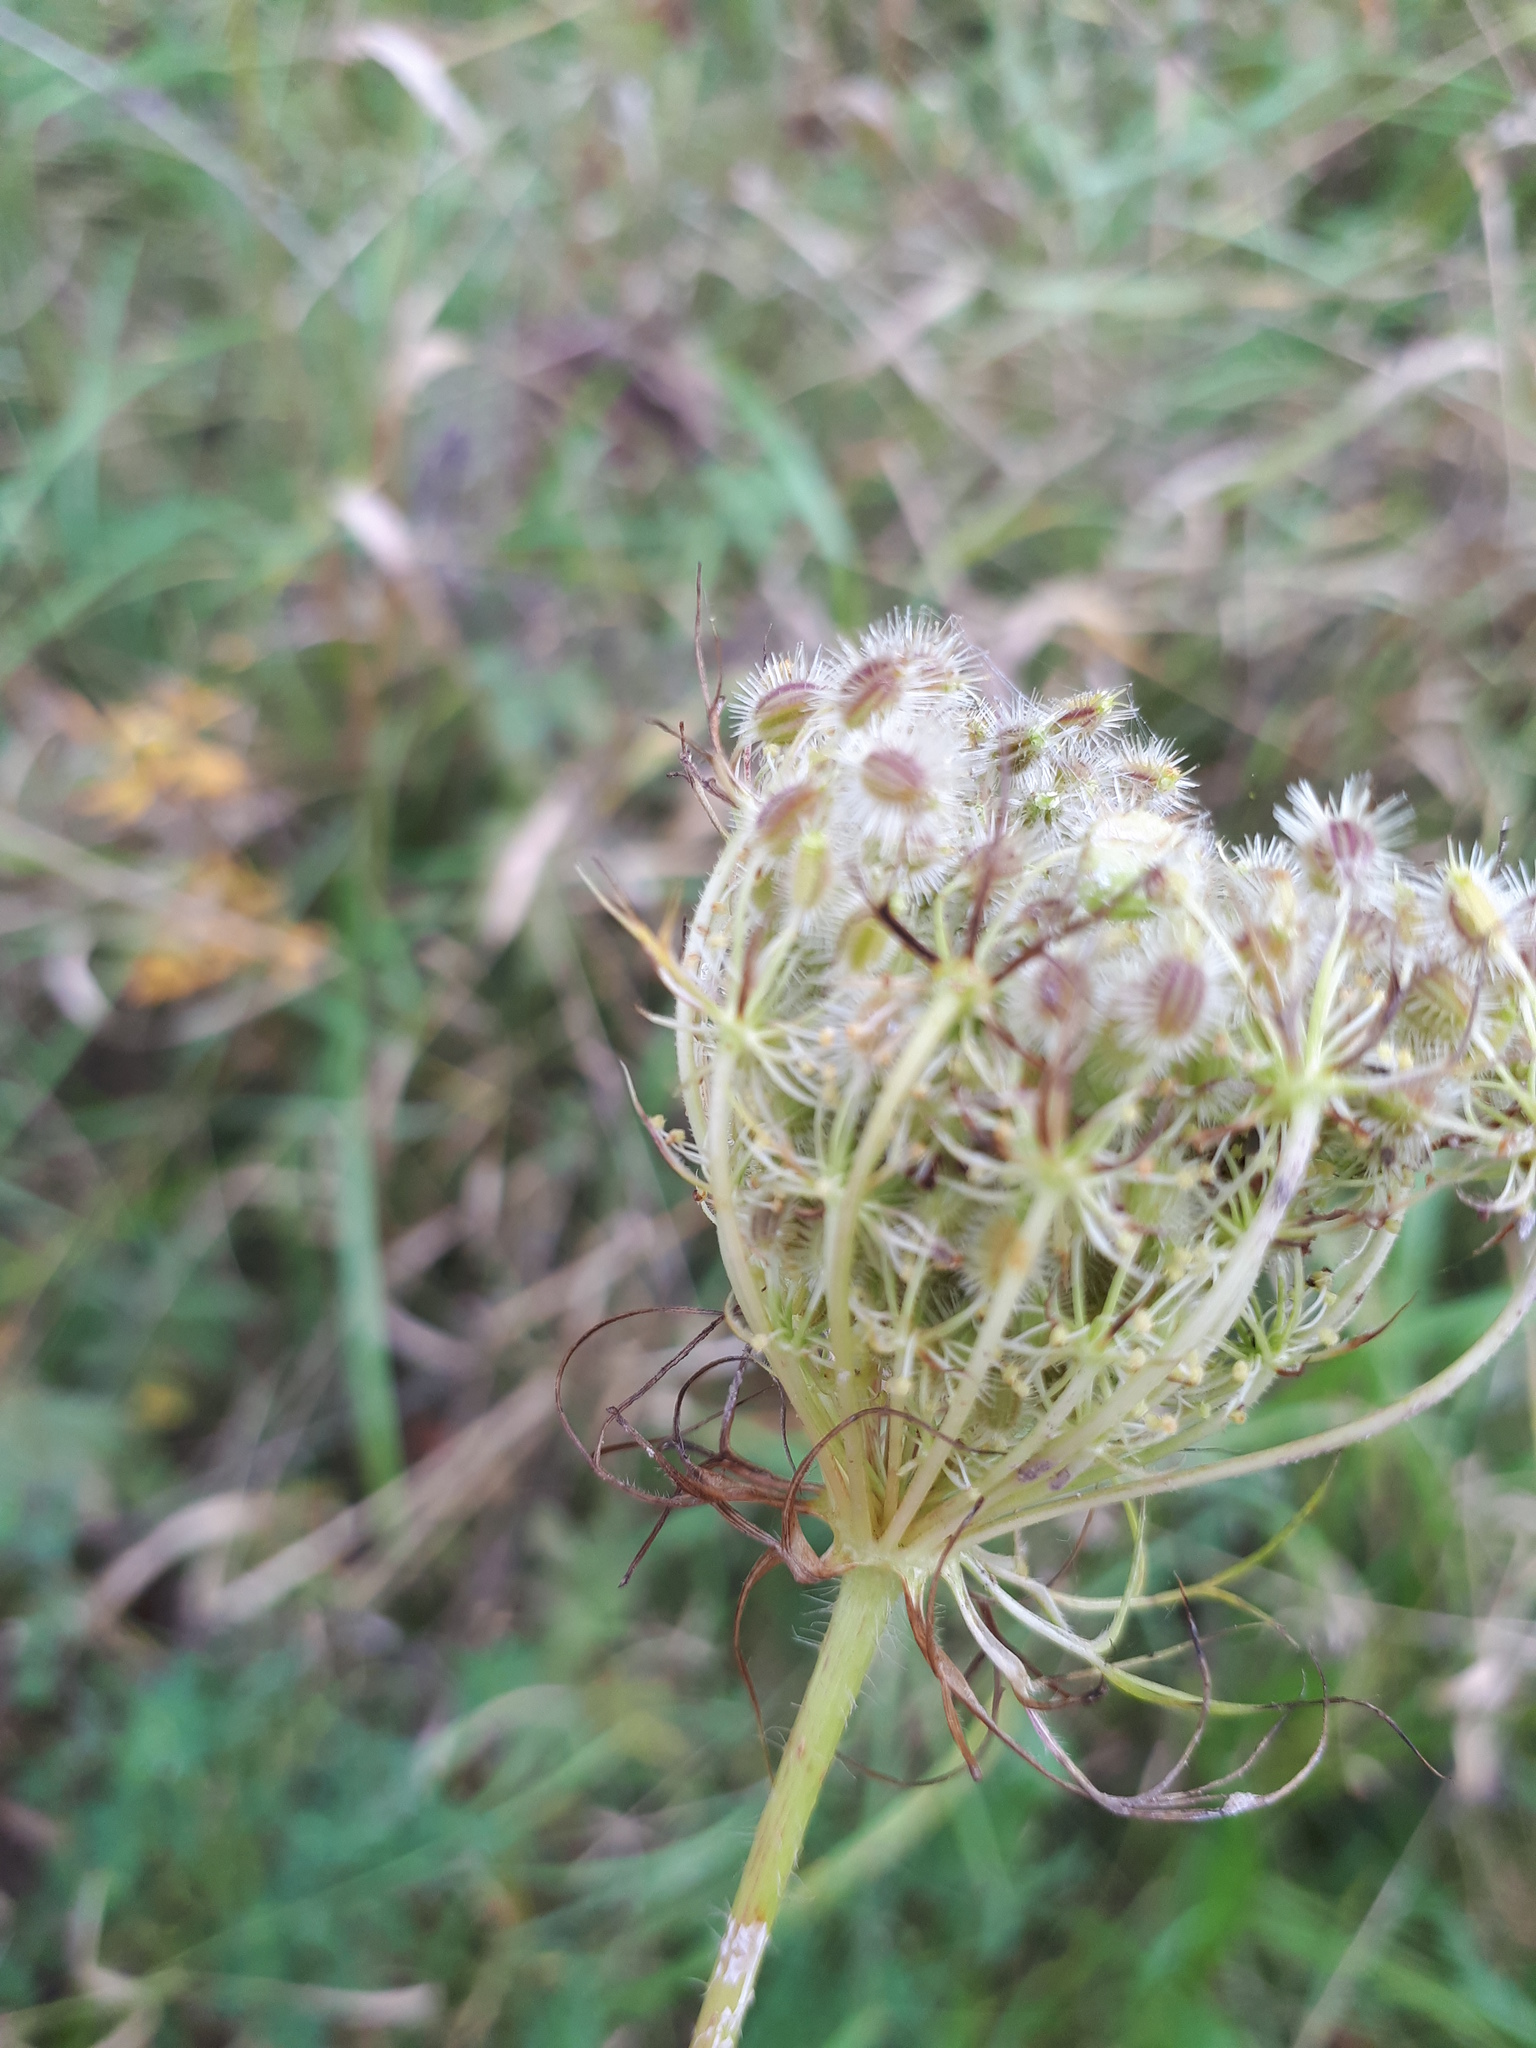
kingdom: Plantae
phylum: Tracheophyta
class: Magnoliopsida
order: Apiales
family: Apiaceae
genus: Daucus
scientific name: Daucus carota
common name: Wild carrot
